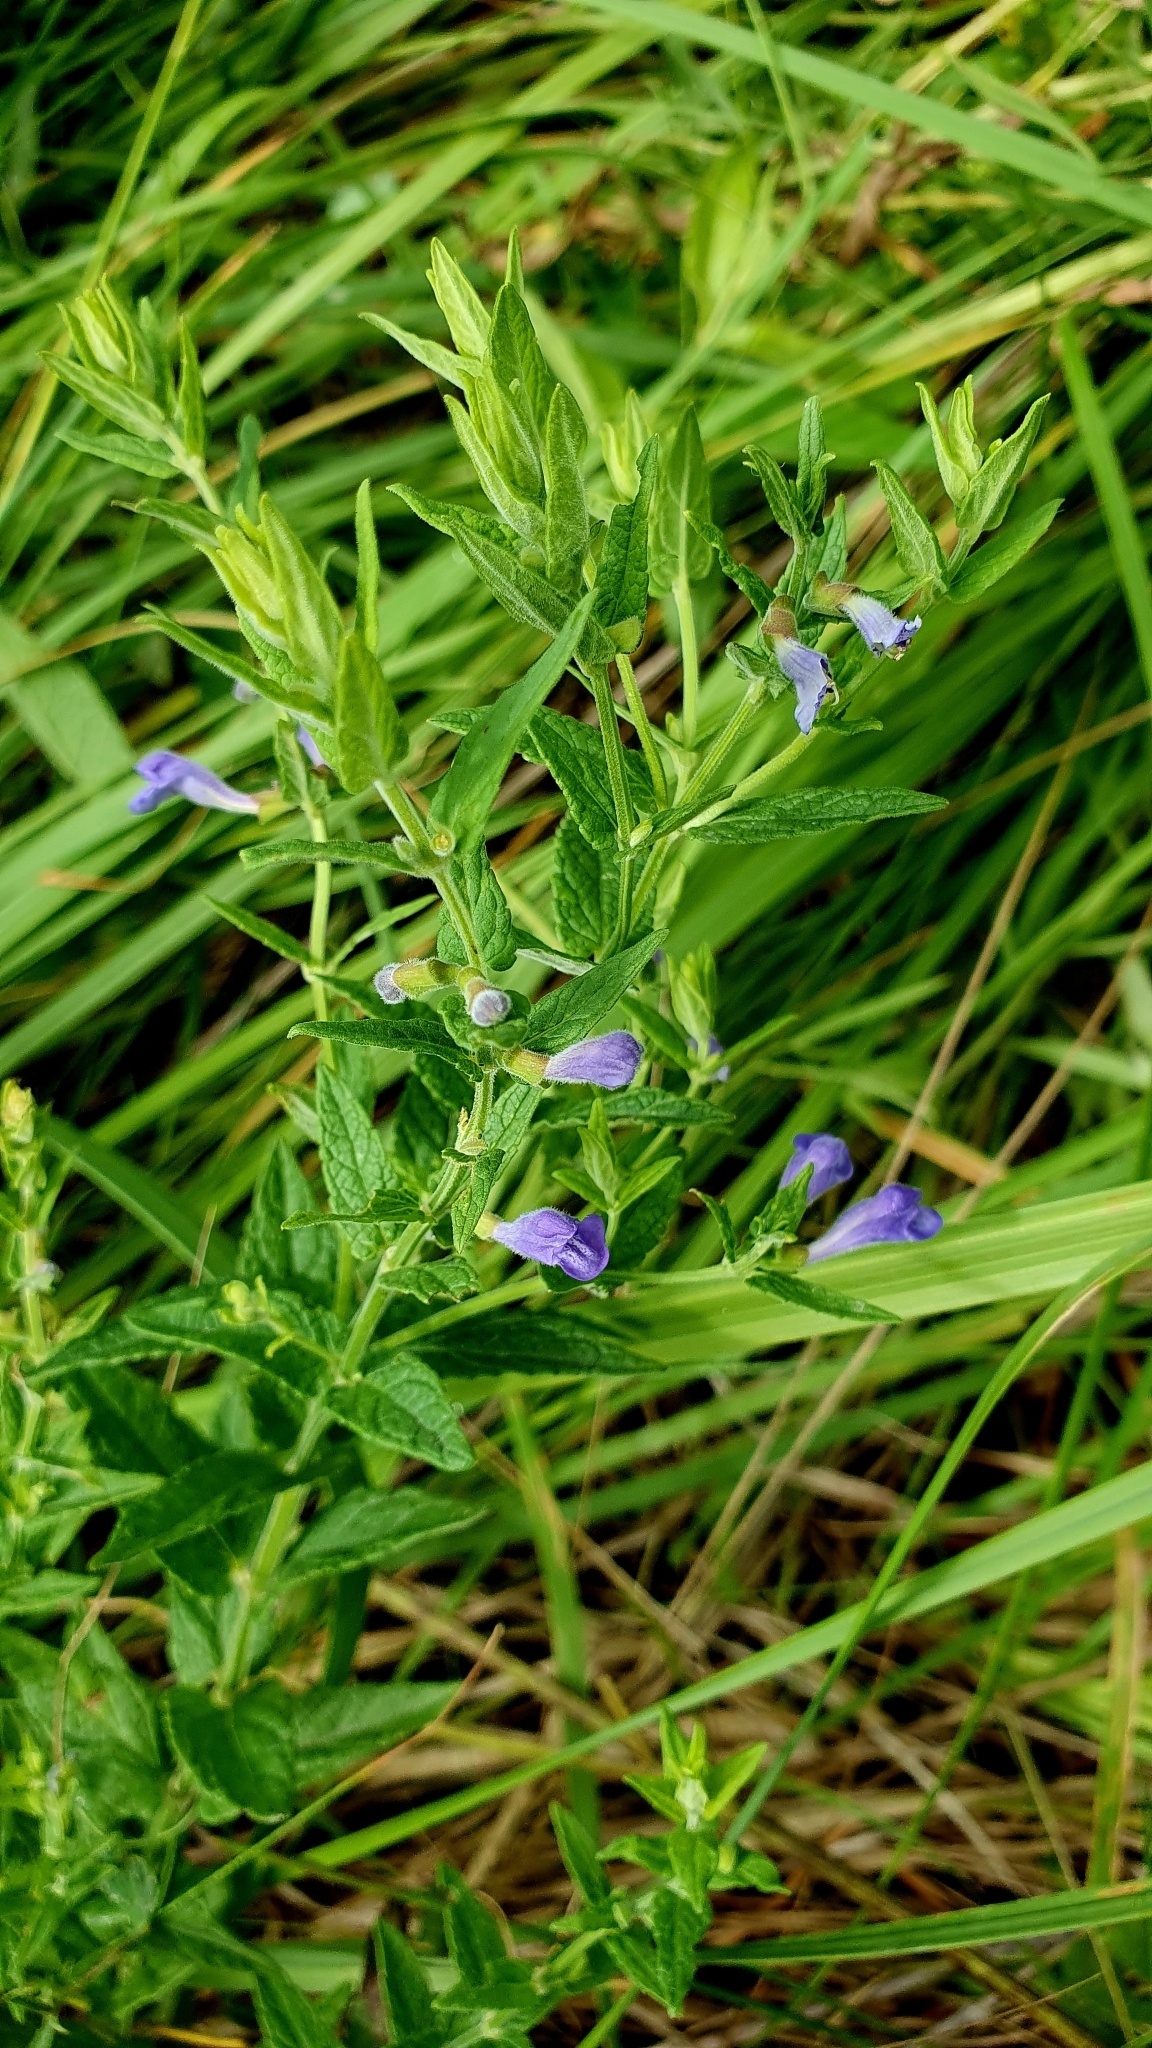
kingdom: Plantae
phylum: Tracheophyta
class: Magnoliopsida
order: Lamiales
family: Lamiaceae
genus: Scutellaria
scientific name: Scutellaria galericulata
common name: Skullcap
